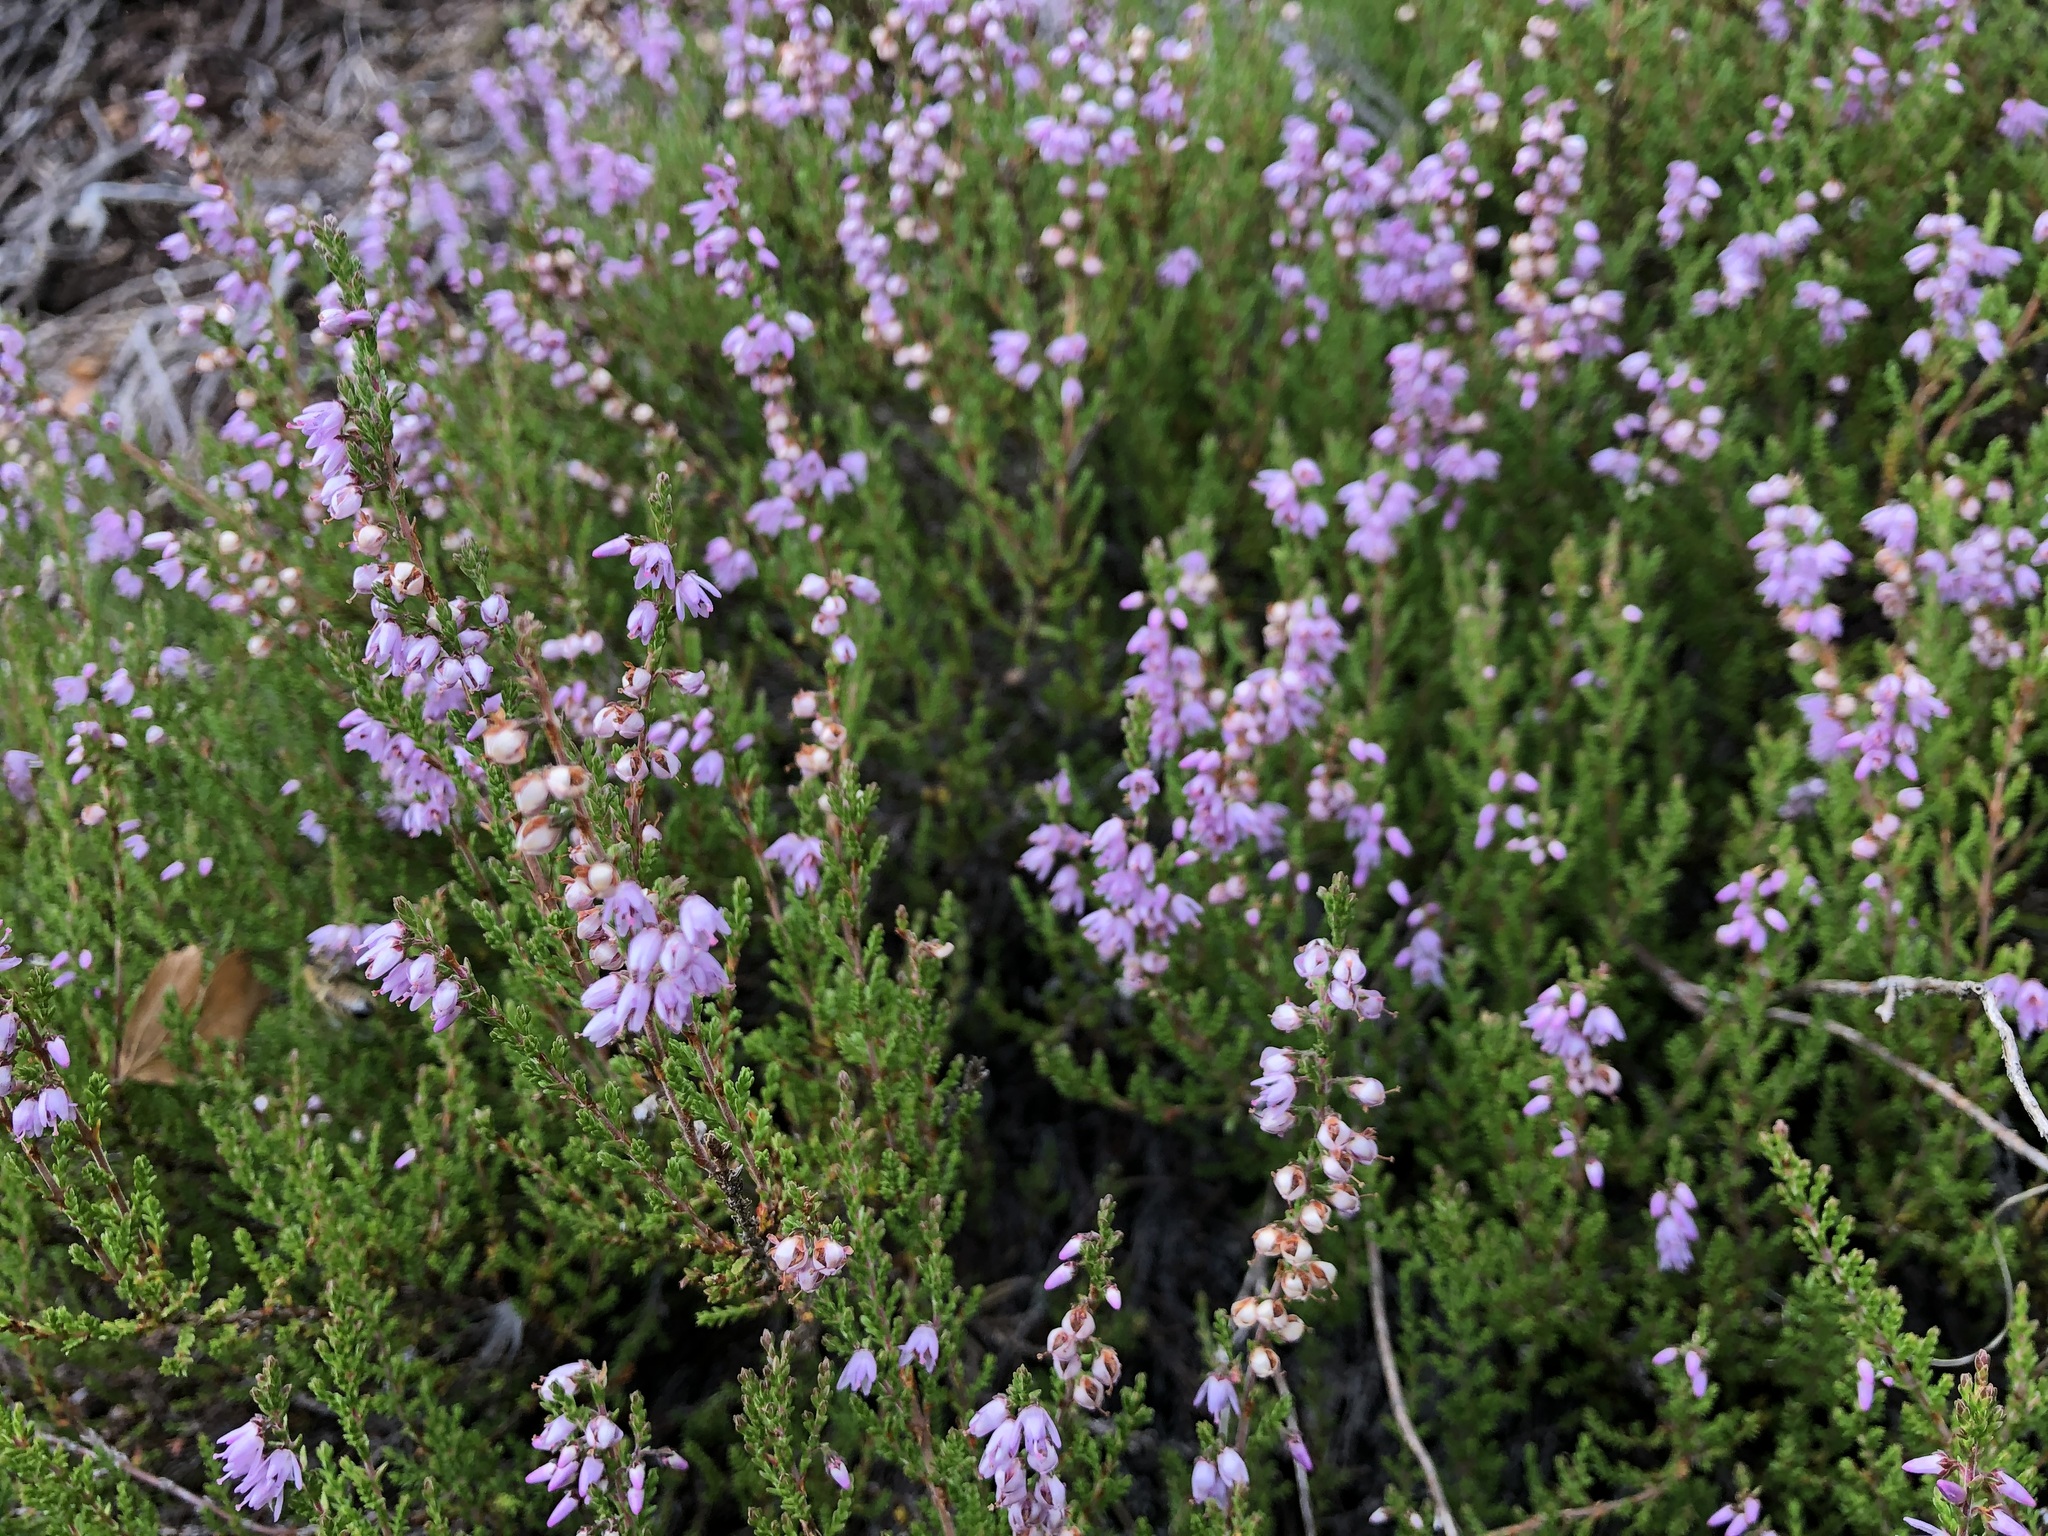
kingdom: Plantae
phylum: Tracheophyta
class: Magnoliopsida
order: Ericales
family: Ericaceae
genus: Calluna
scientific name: Calluna vulgaris
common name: Heather
